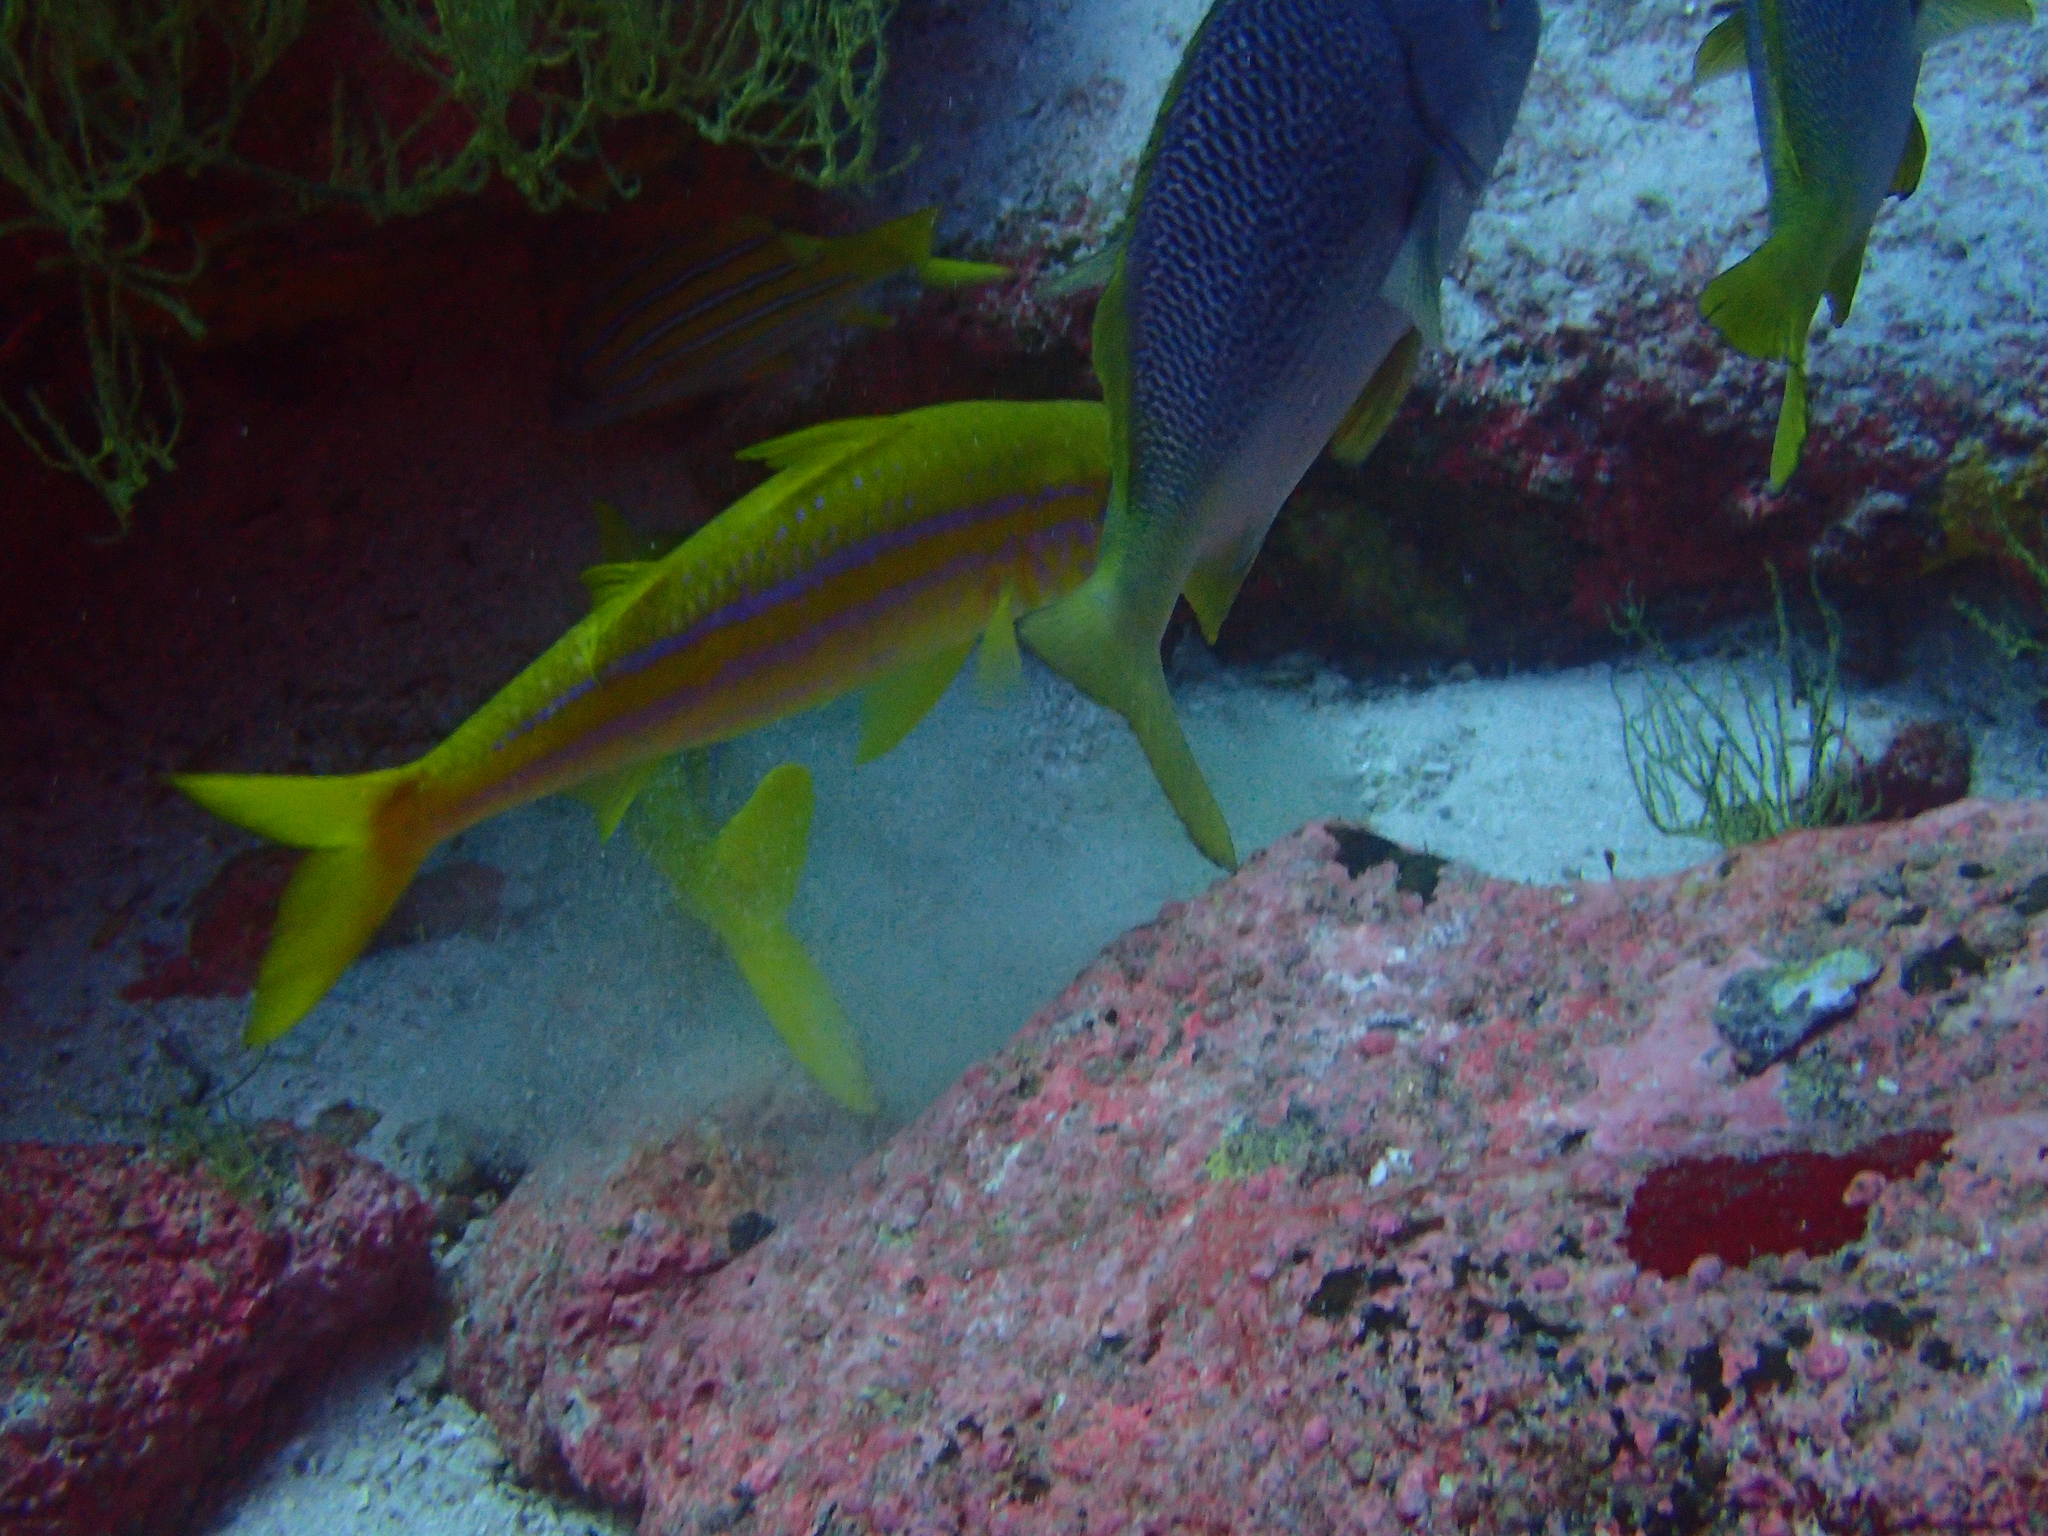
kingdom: Animalia
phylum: Chordata
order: Perciformes
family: Mullidae
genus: Mulloidichthys
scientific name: Mulloidichthys dentatus
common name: Mexican goatfish
